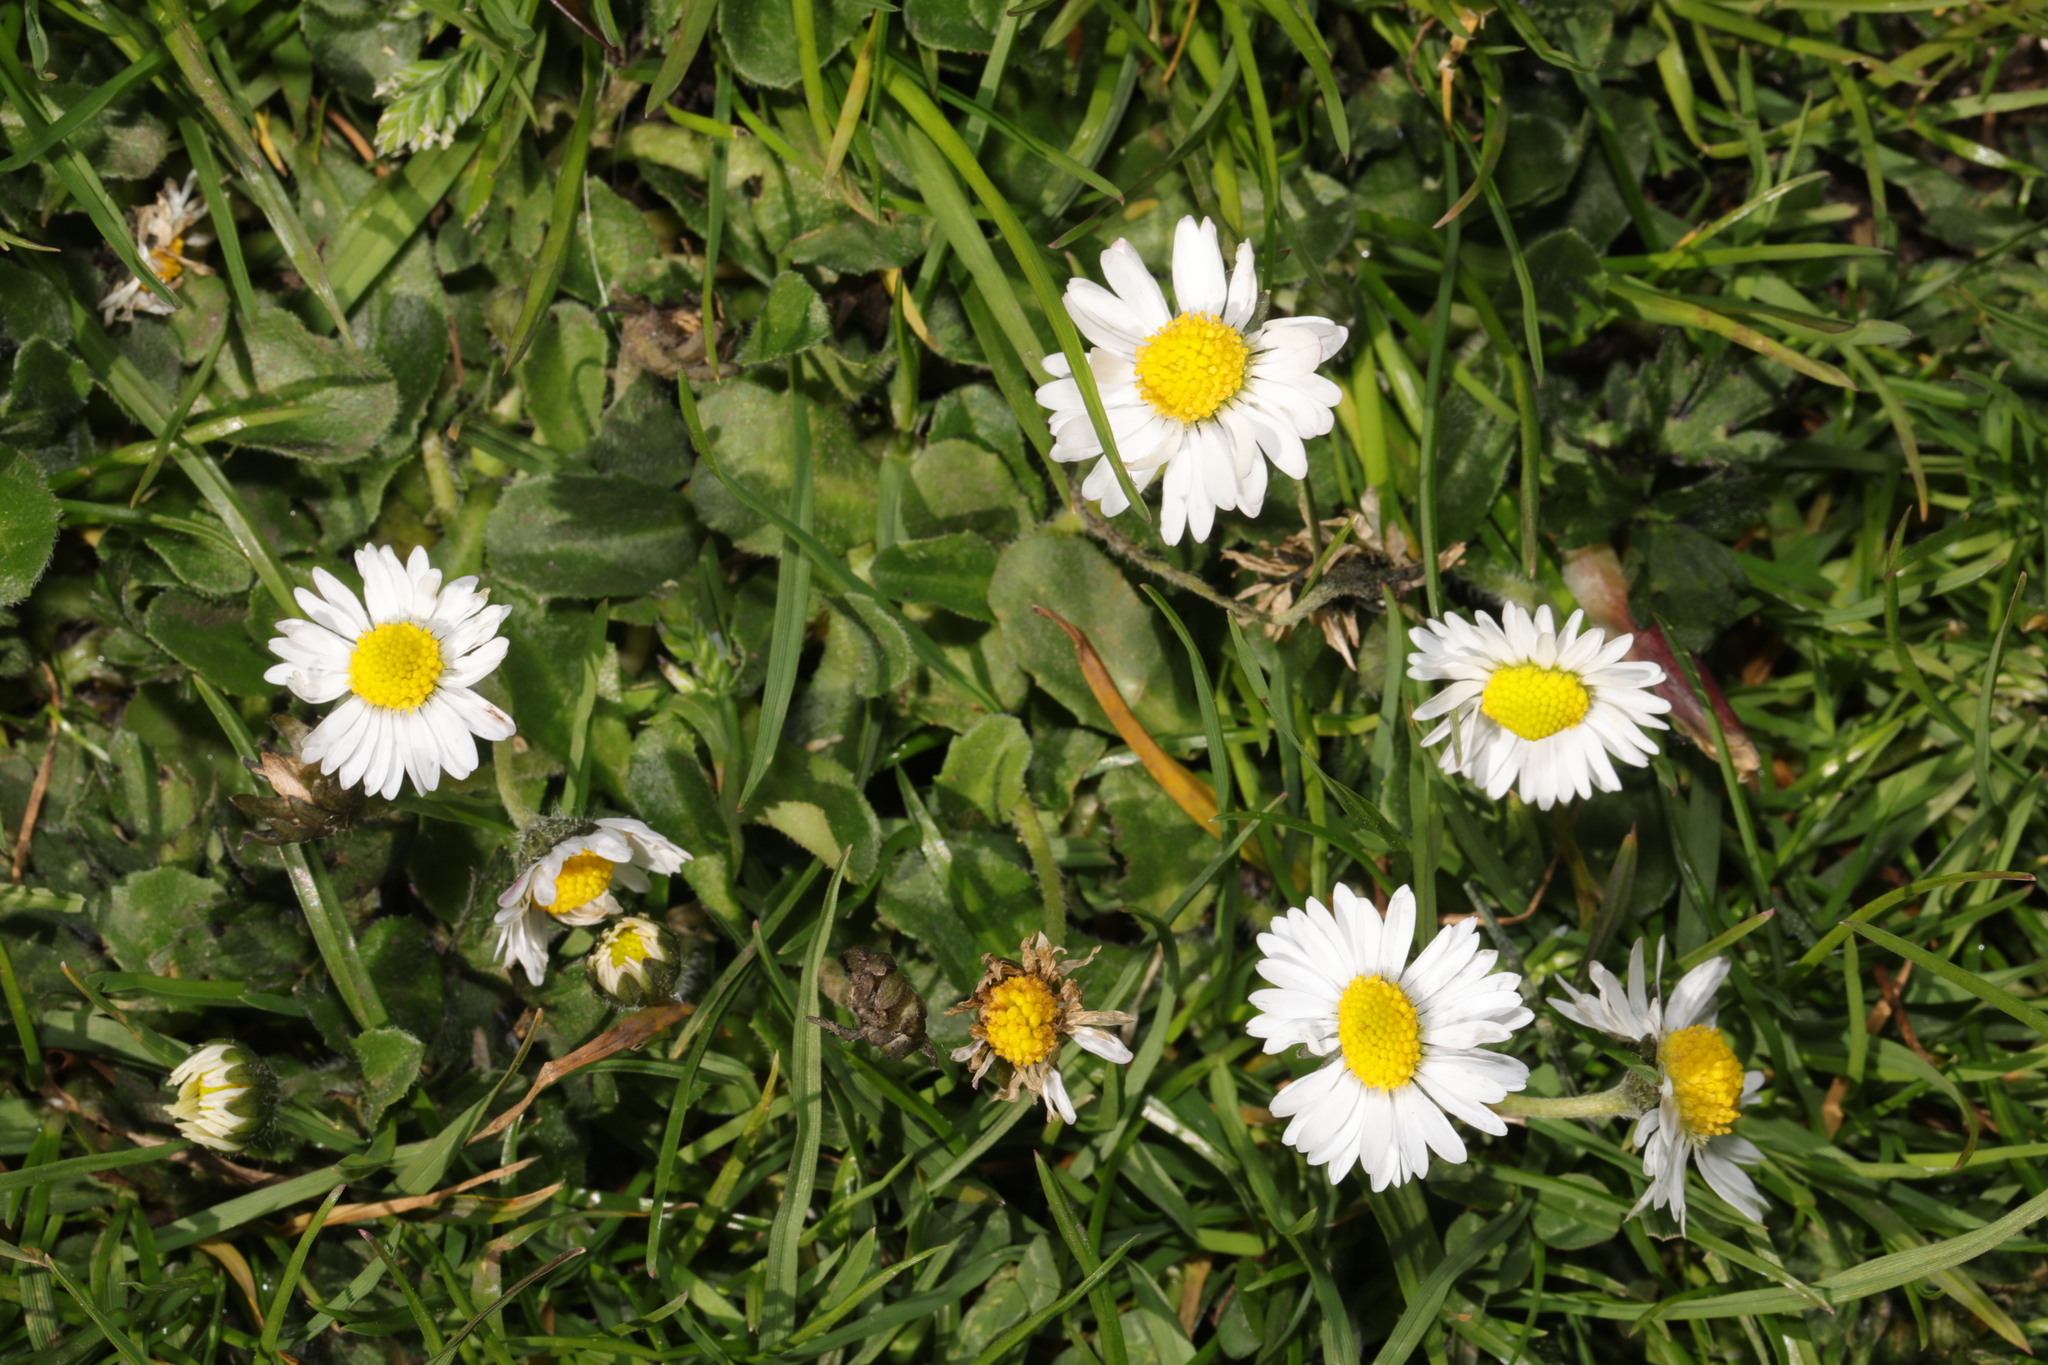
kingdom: Plantae
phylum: Tracheophyta
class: Magnoliopsida
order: Asterales
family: Asteraceae
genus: Bellis
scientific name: Bellis perennis
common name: Lawndaisy
